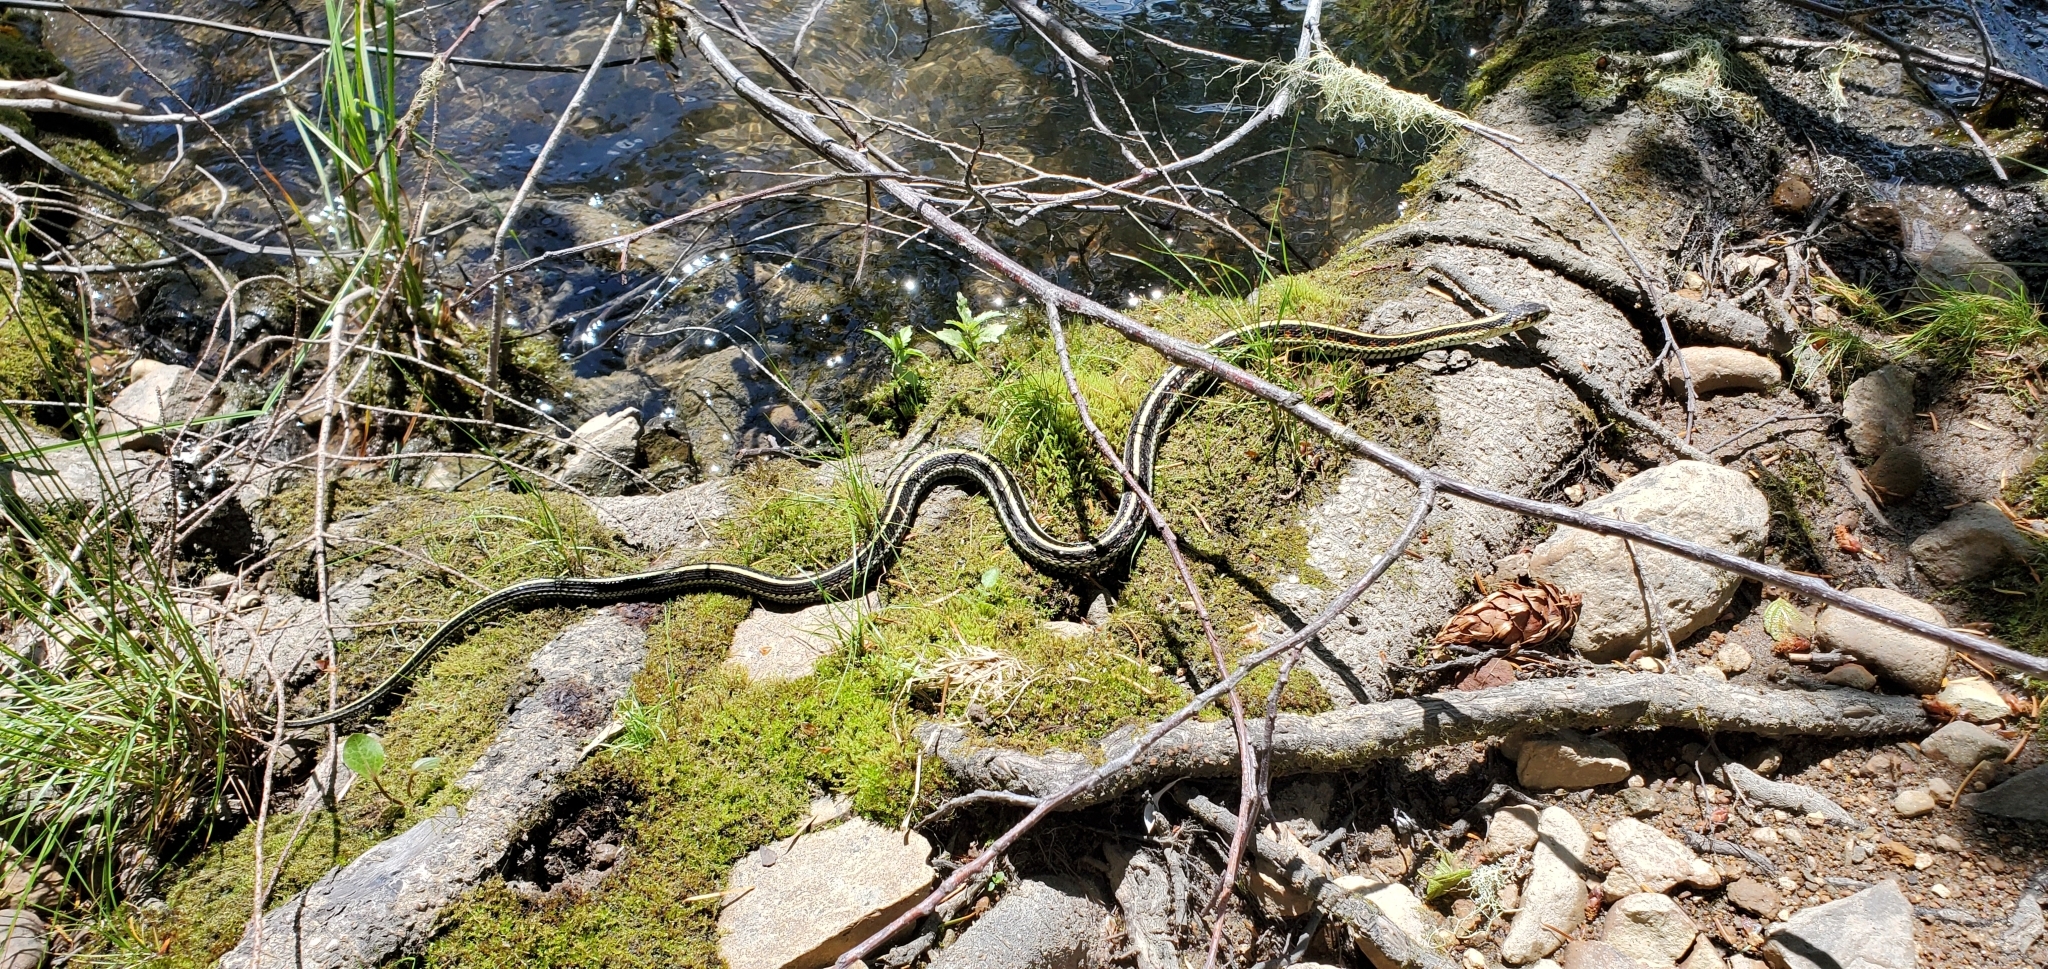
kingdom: Animalia
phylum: Chordata
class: Squamata
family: Colubridae
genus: Thamnophis
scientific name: Thamnophis sirtalis
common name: Common garter snake
